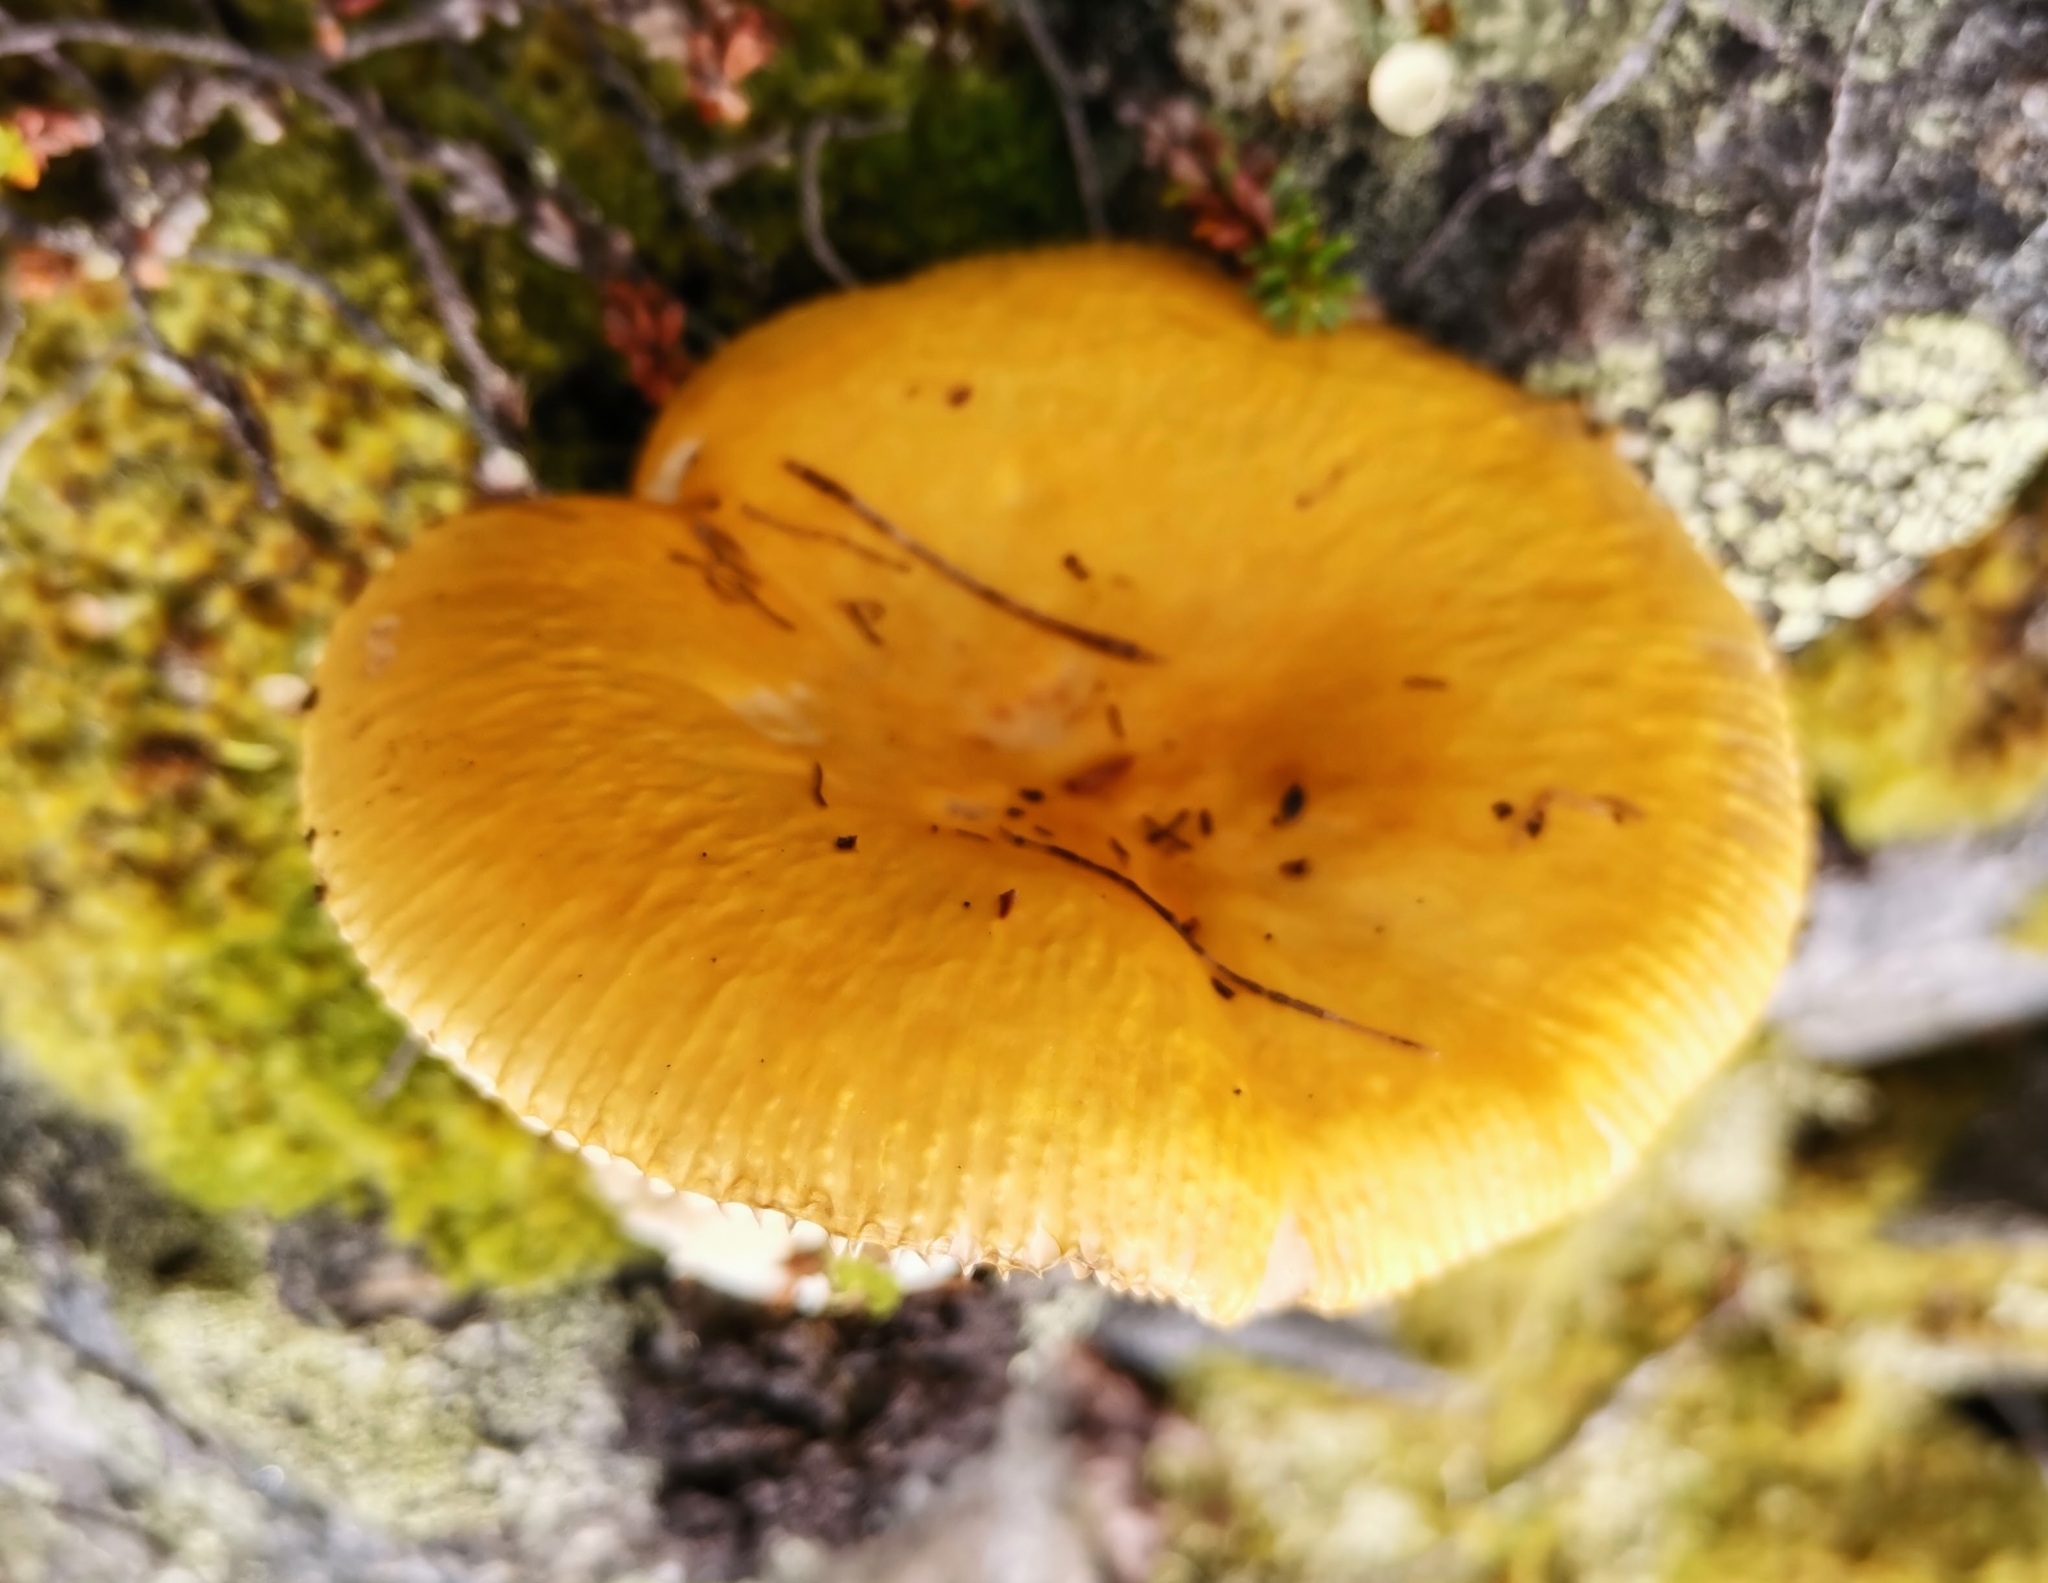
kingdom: Fungi
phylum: Basidiomycota
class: Agaricomycetes
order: Russulales
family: Russulaceae
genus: Russula
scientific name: Russula claroflava
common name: The yellow swamp brittlegill
